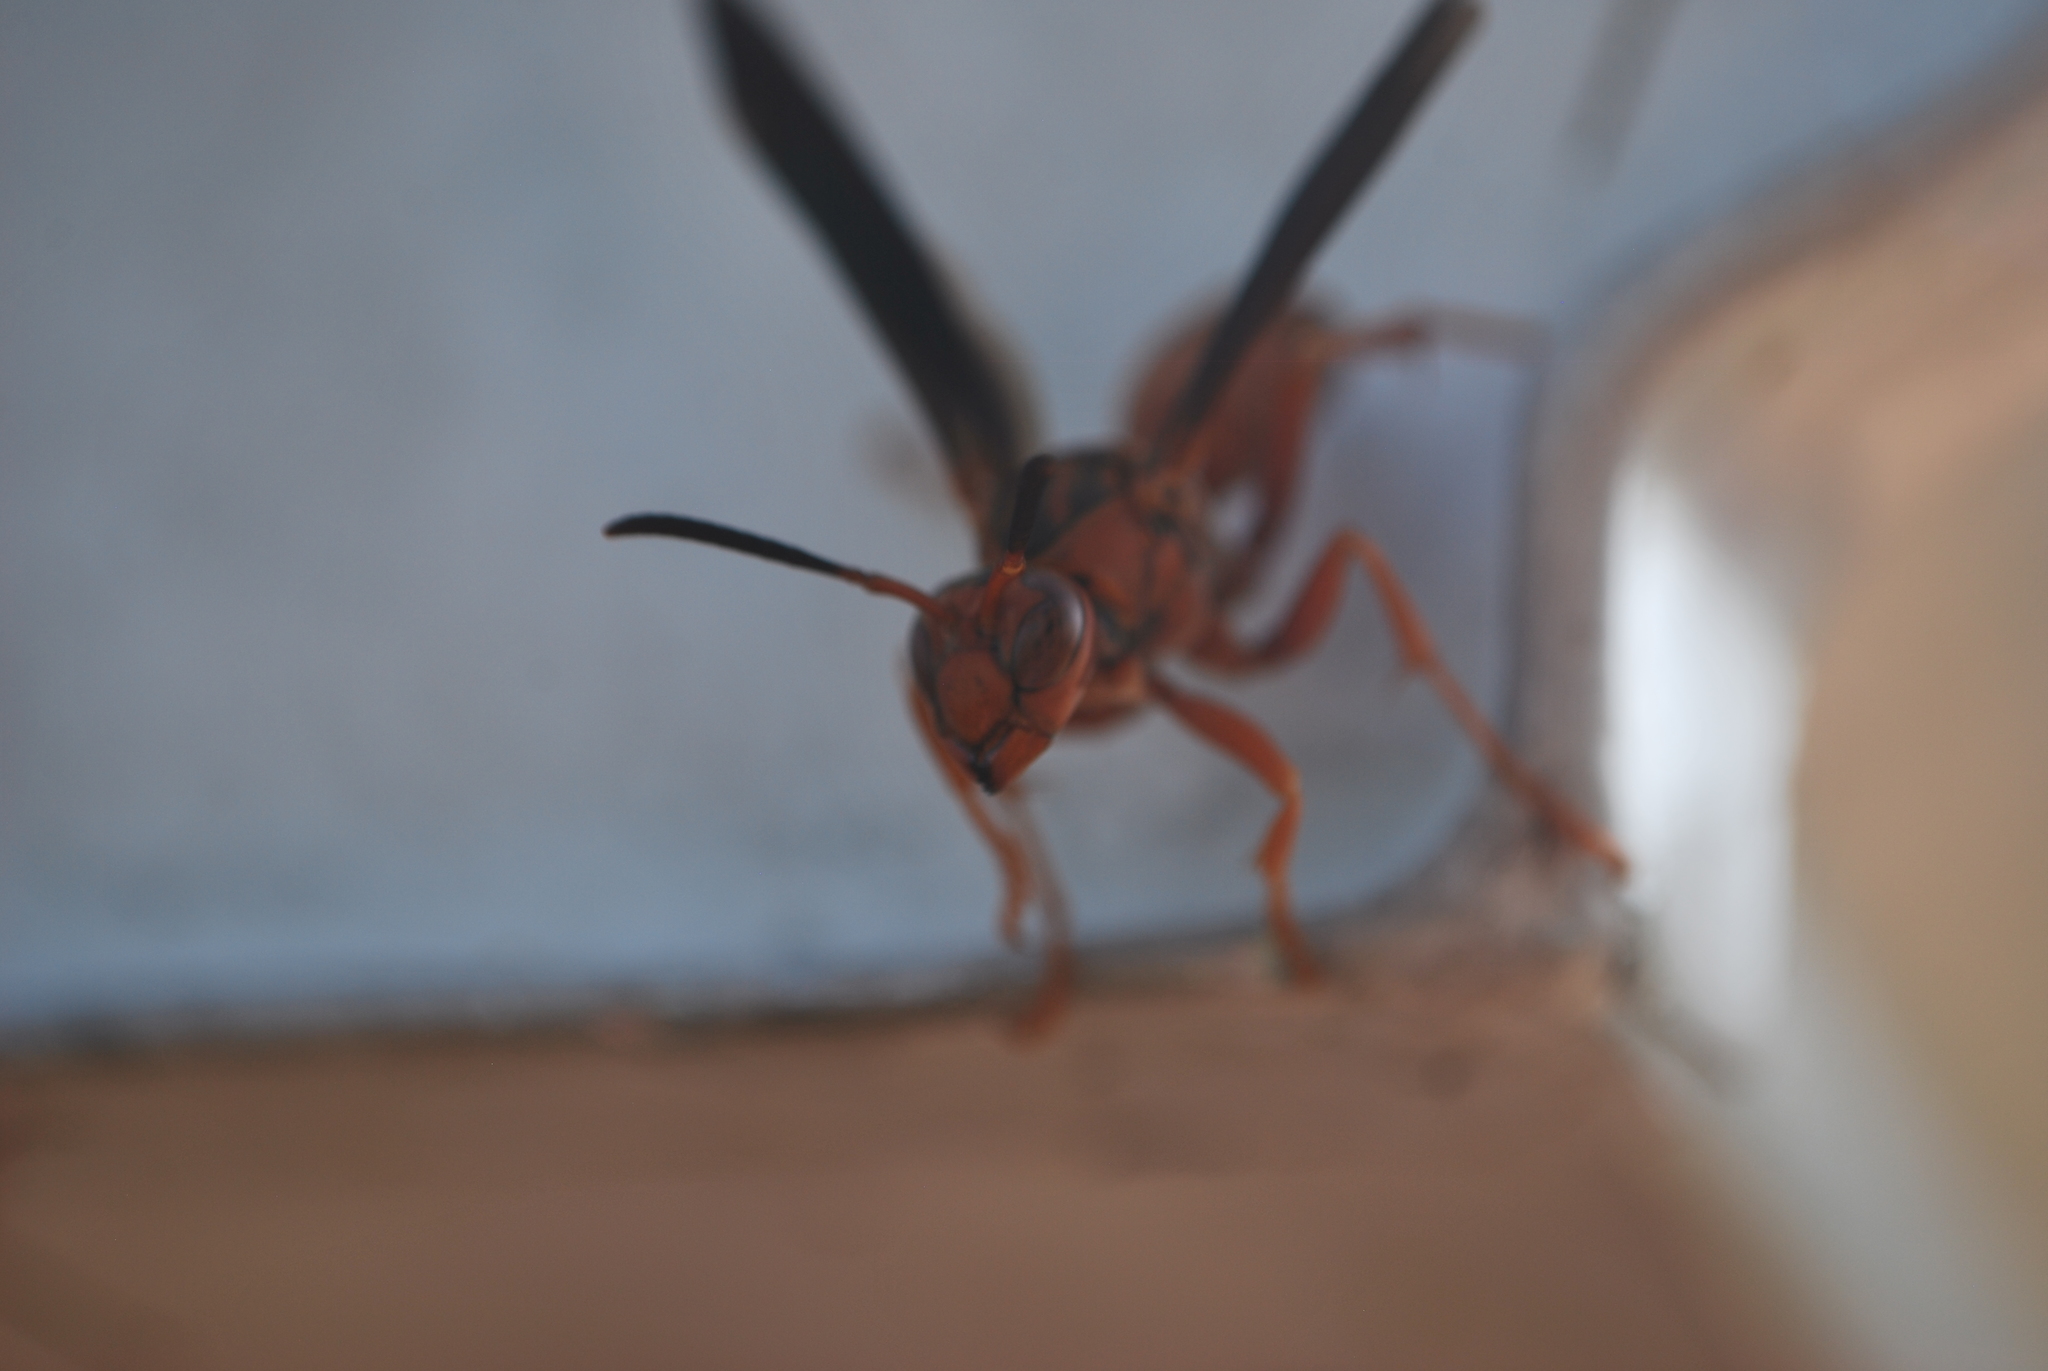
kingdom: Animalia
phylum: Arthropoda
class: Insecta
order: Hymenoptera
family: Eumenidae
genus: Polistes
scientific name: Polistes carolina
